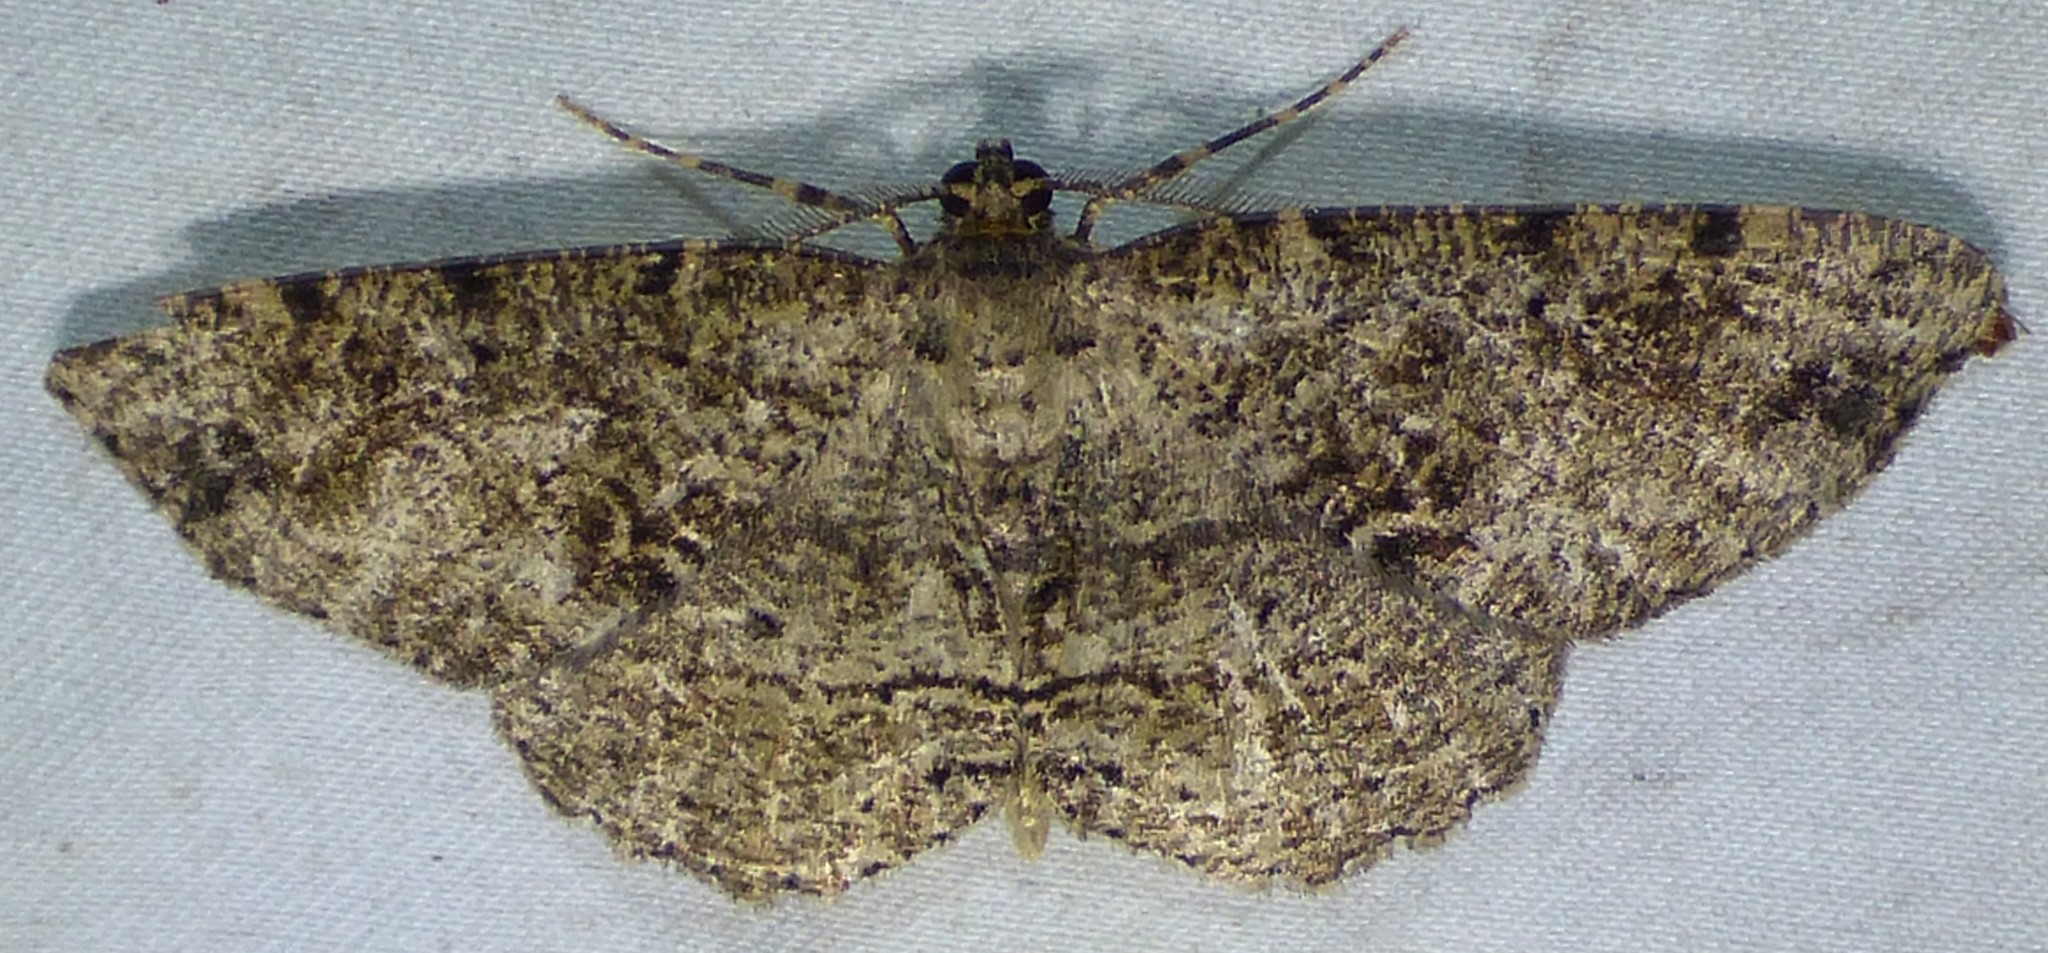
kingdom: Animalia
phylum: Arthropoda
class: Insecta
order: Lepidoptera
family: Geometridae
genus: Melanolophia
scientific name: Melanolophia canadaria
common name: Canadian melanolophia
